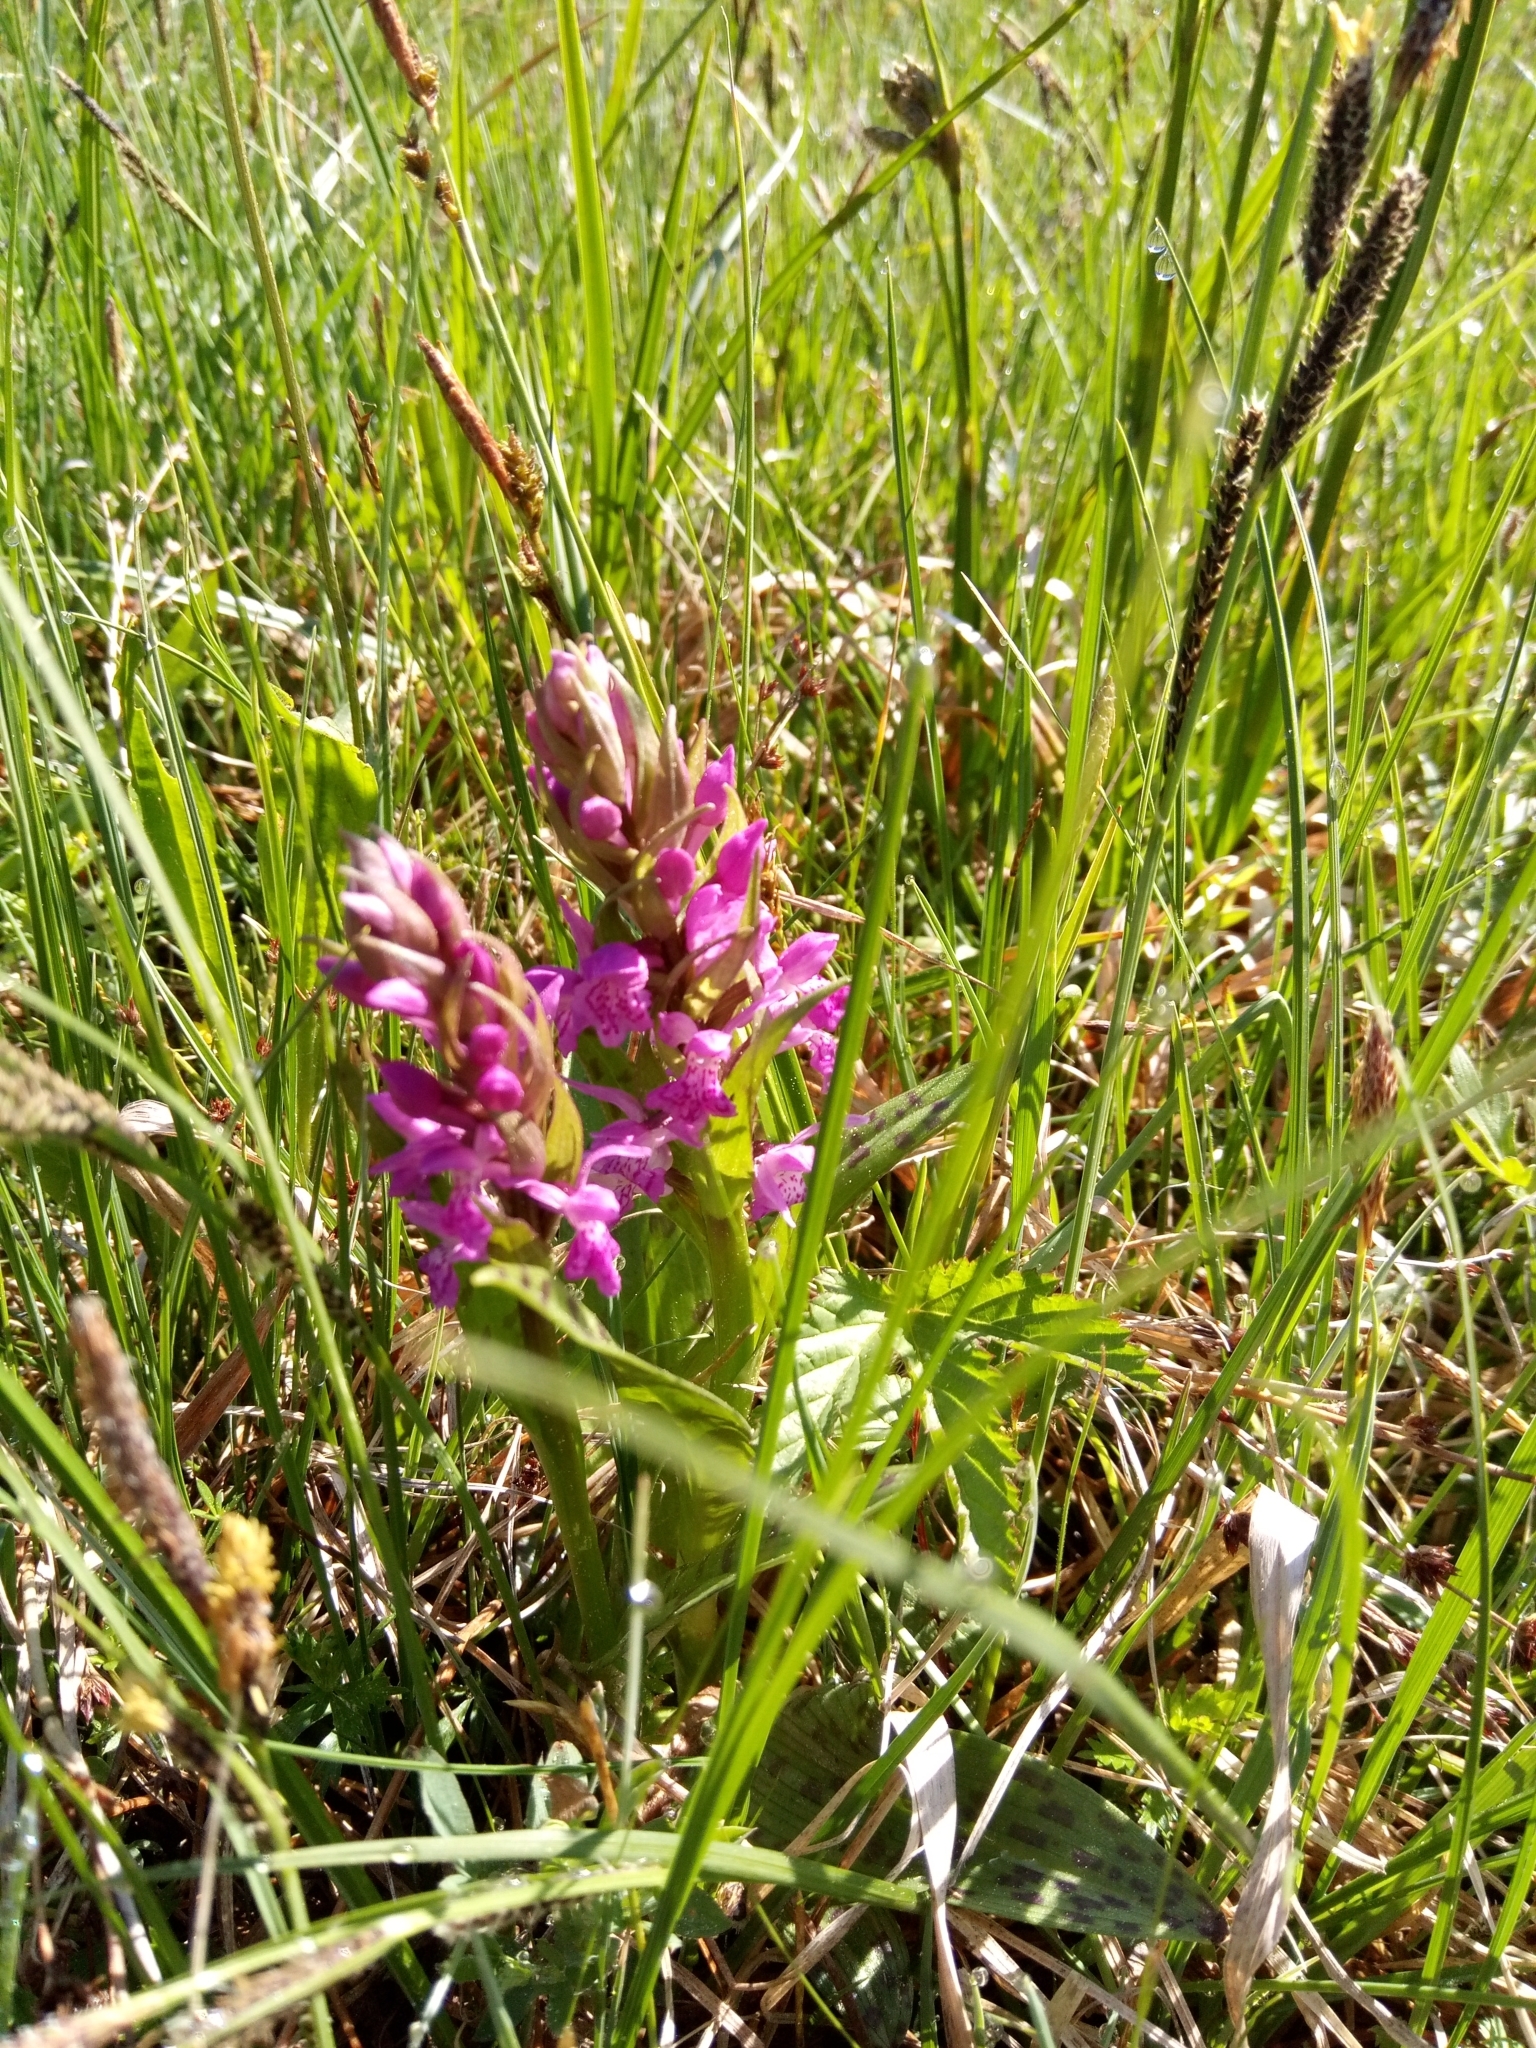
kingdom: Plantae
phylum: Tracheophyta
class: Liliopsida
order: Asparagales
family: Orchidaceae
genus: Dactylorhiza
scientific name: Dactylorhiza majalis
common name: Marsh orchid
